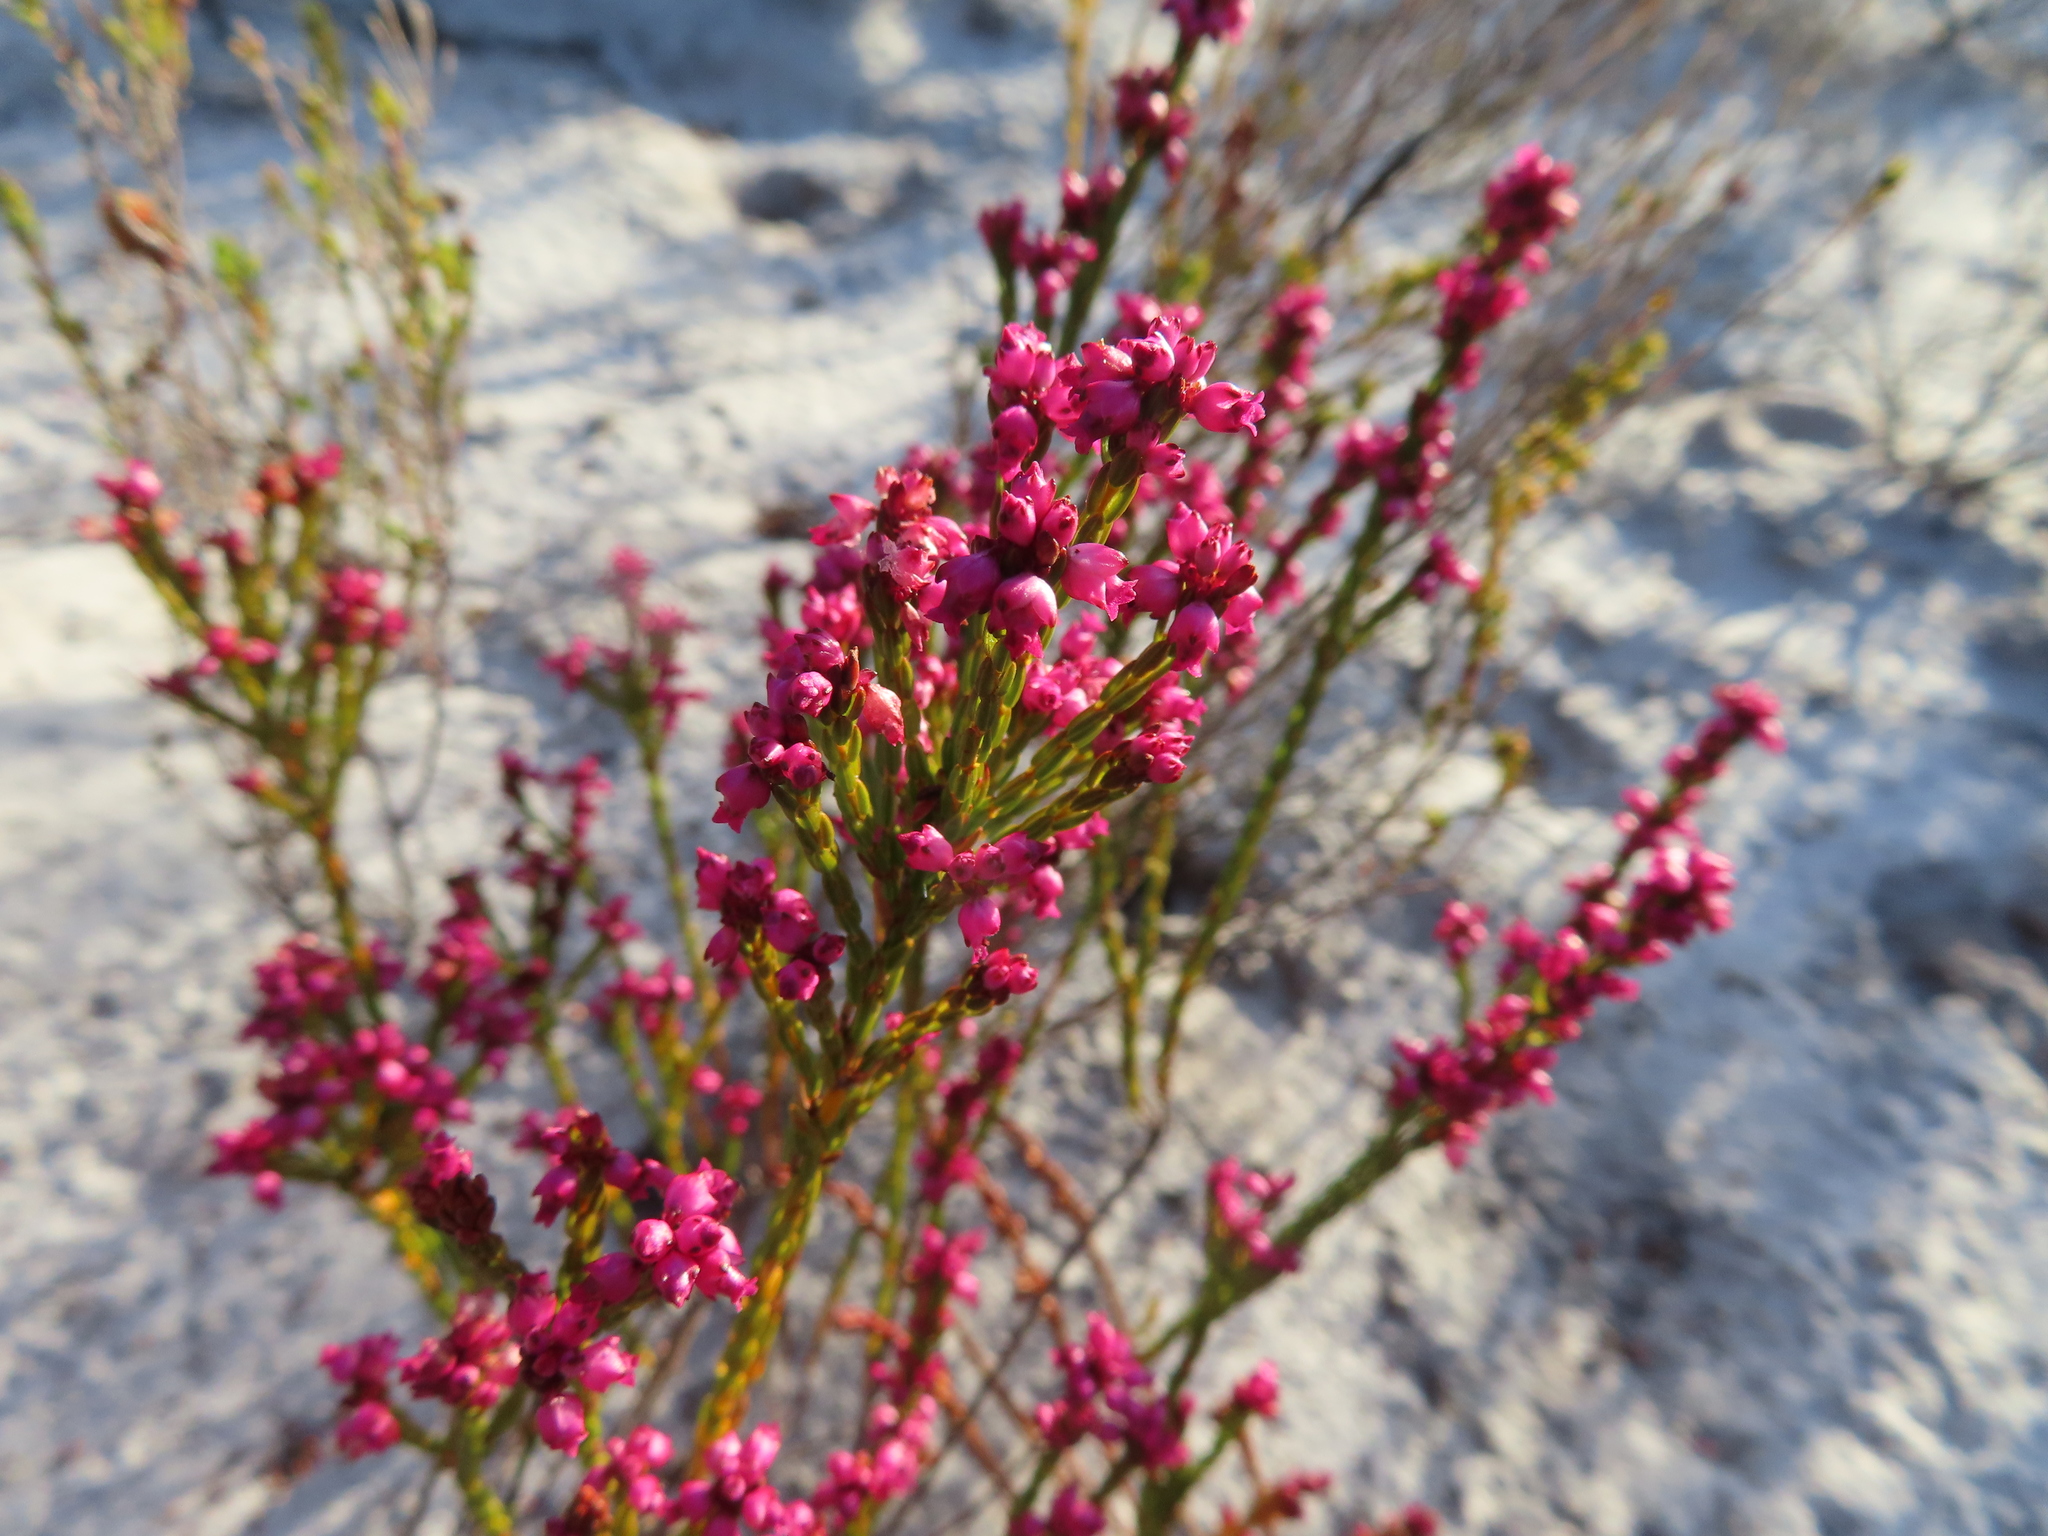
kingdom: Plantae
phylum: Tracheophyta
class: Magnoliopsida
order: Ericales
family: Ericaceae
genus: Erica
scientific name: Erica rhopalantha
